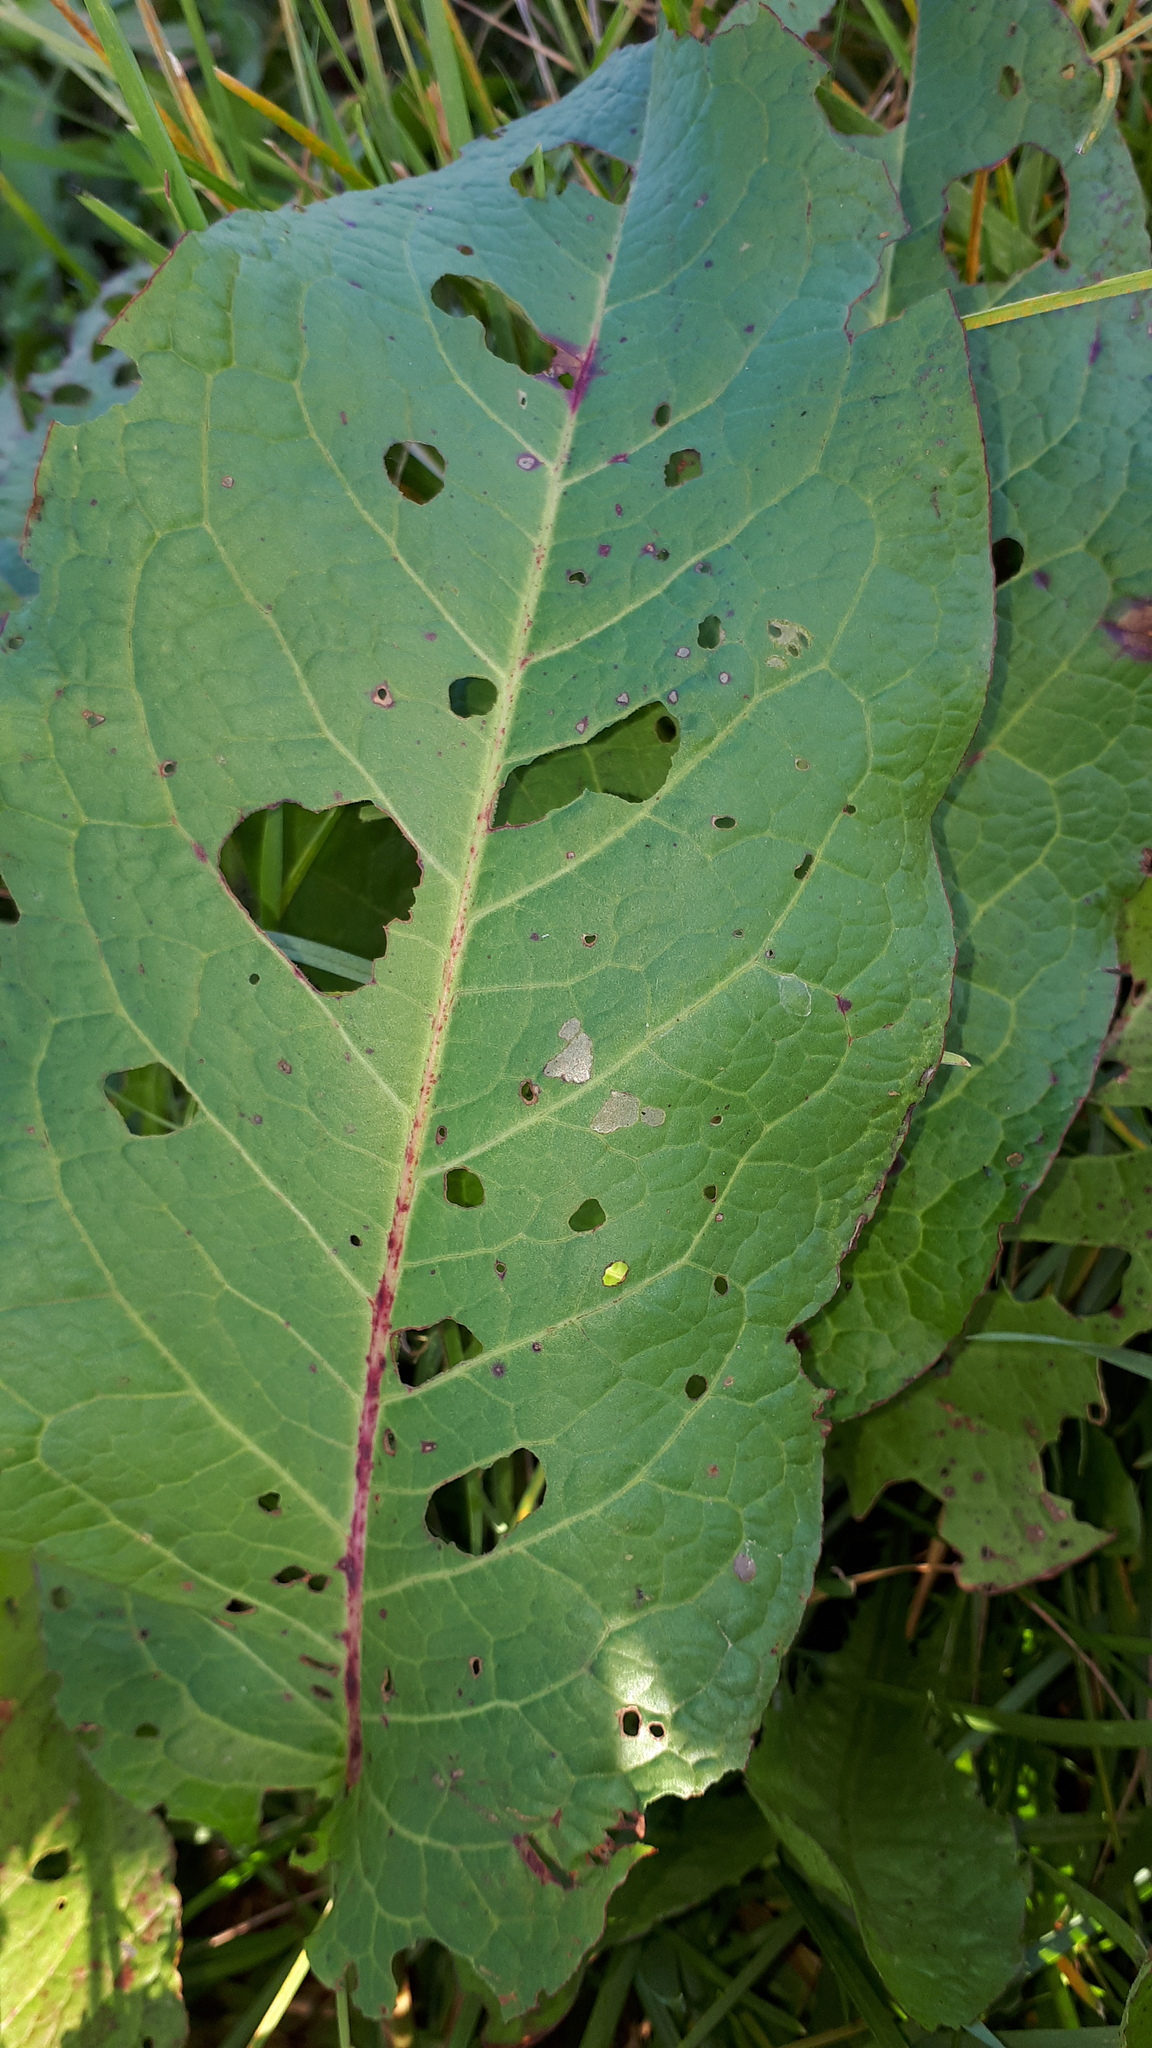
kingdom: Plantae
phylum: Tracheophyta
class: Magnoliopsida
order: Caryophyllales
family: Polygonaceae
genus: Rumex
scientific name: Rumex obtusifolius
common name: Bitter dock
